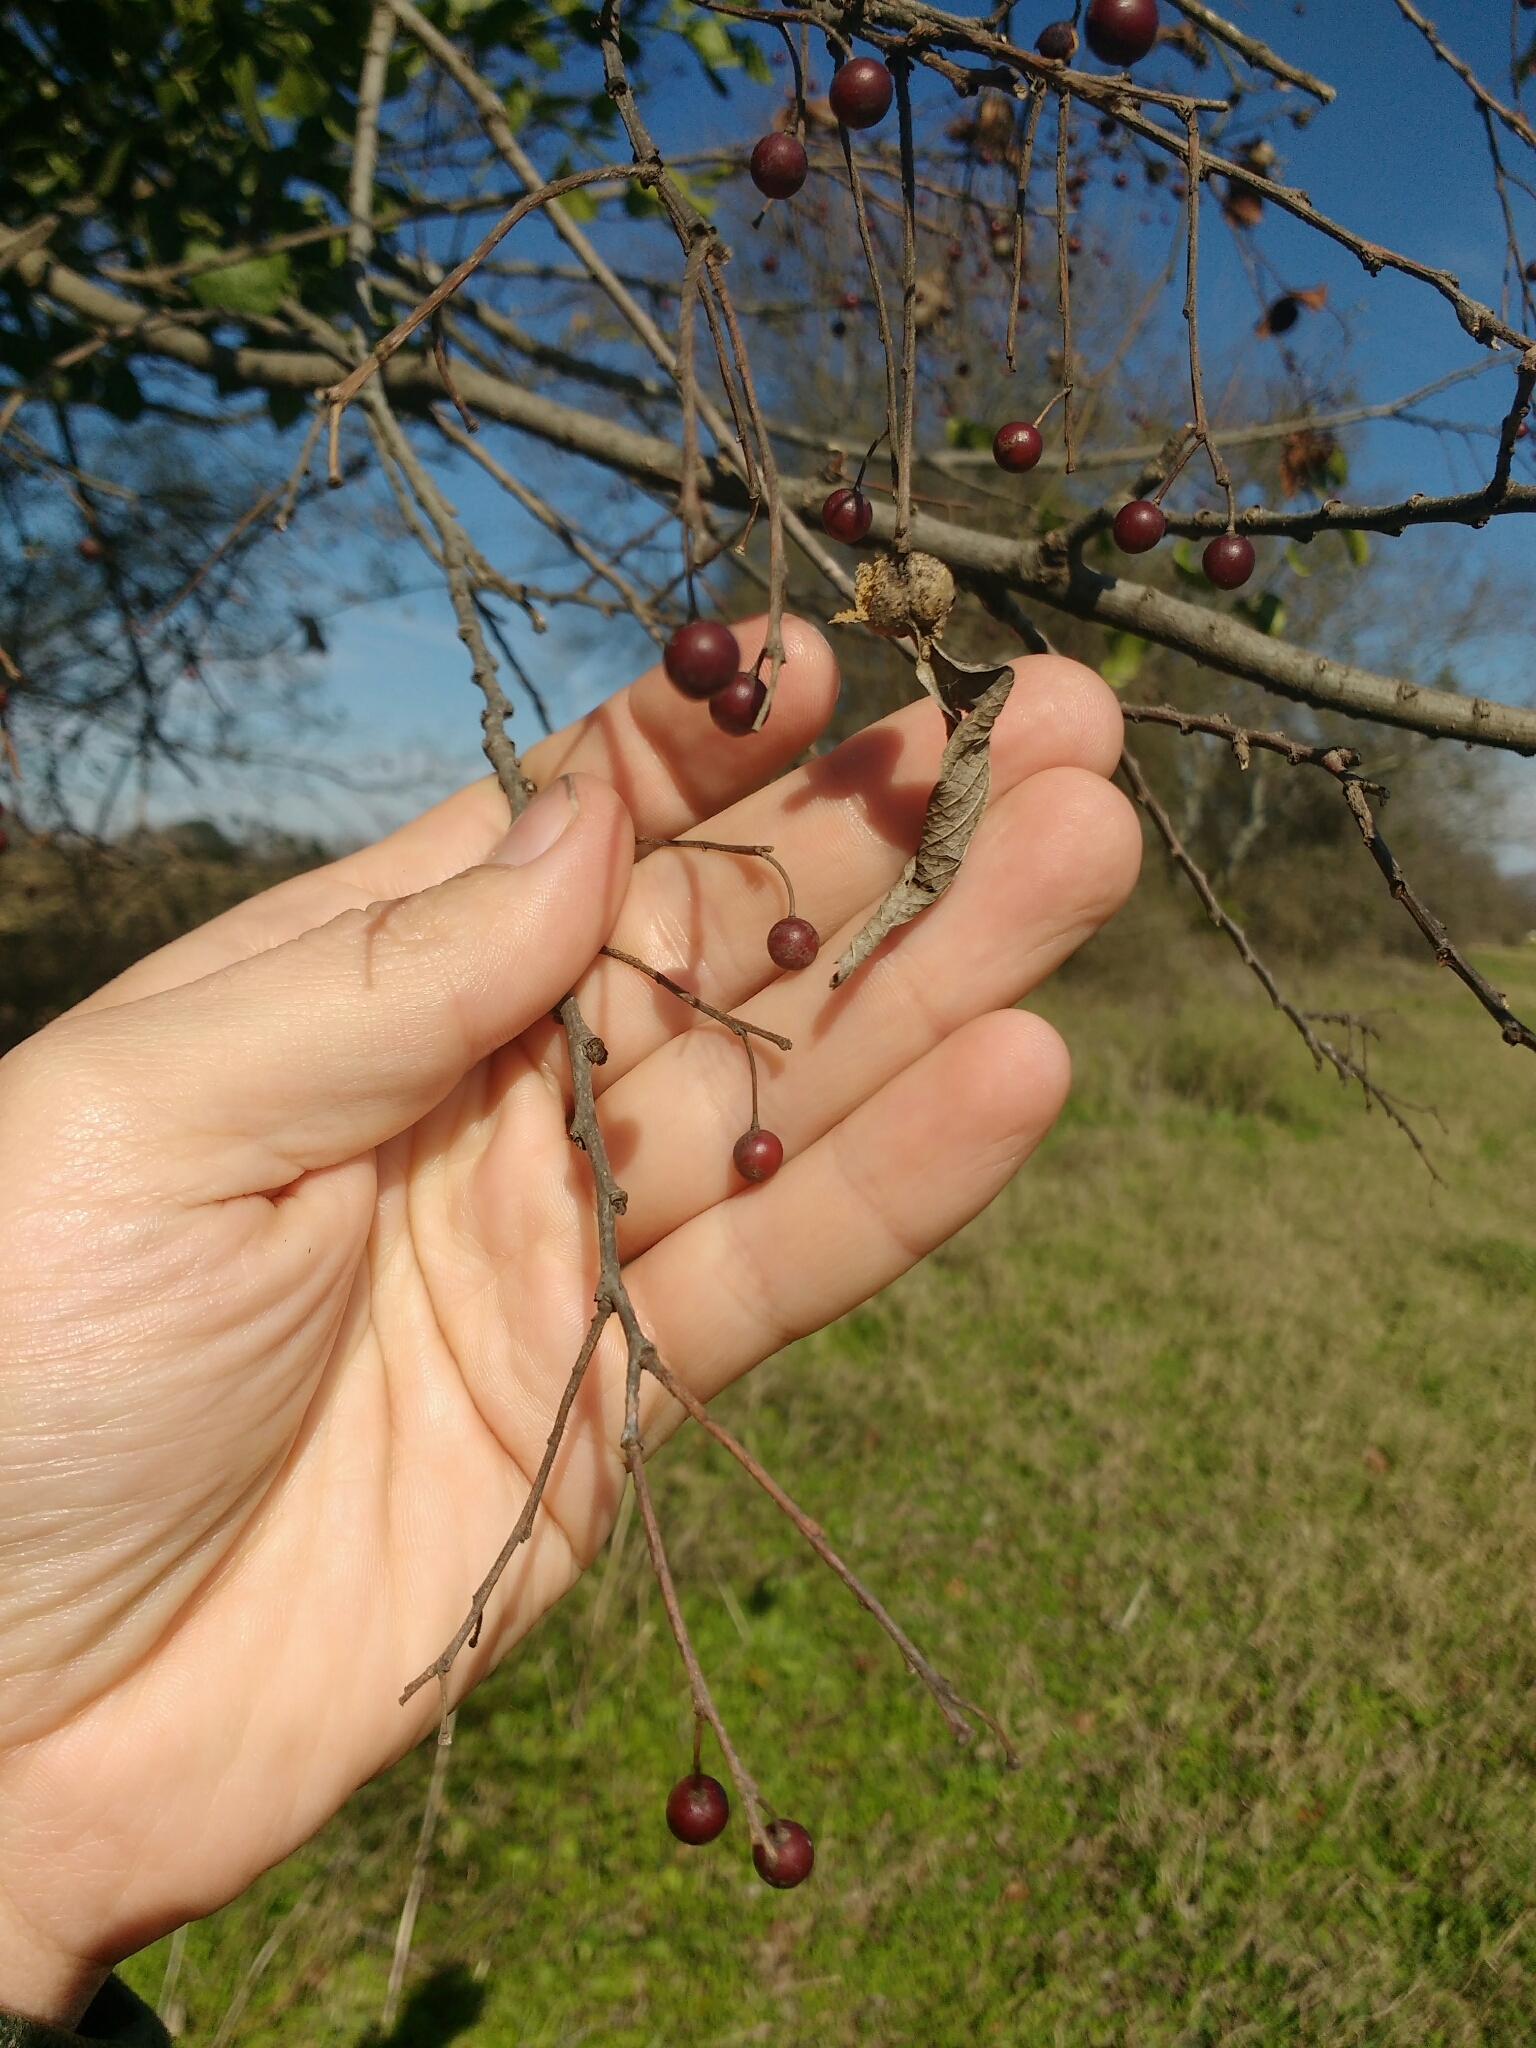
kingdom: Plantae
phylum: Tracheophyta
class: Magnoliopsida
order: Rosales
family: Cannabaceae
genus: Celtis
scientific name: Celtis laevigata
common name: Sugarberry
